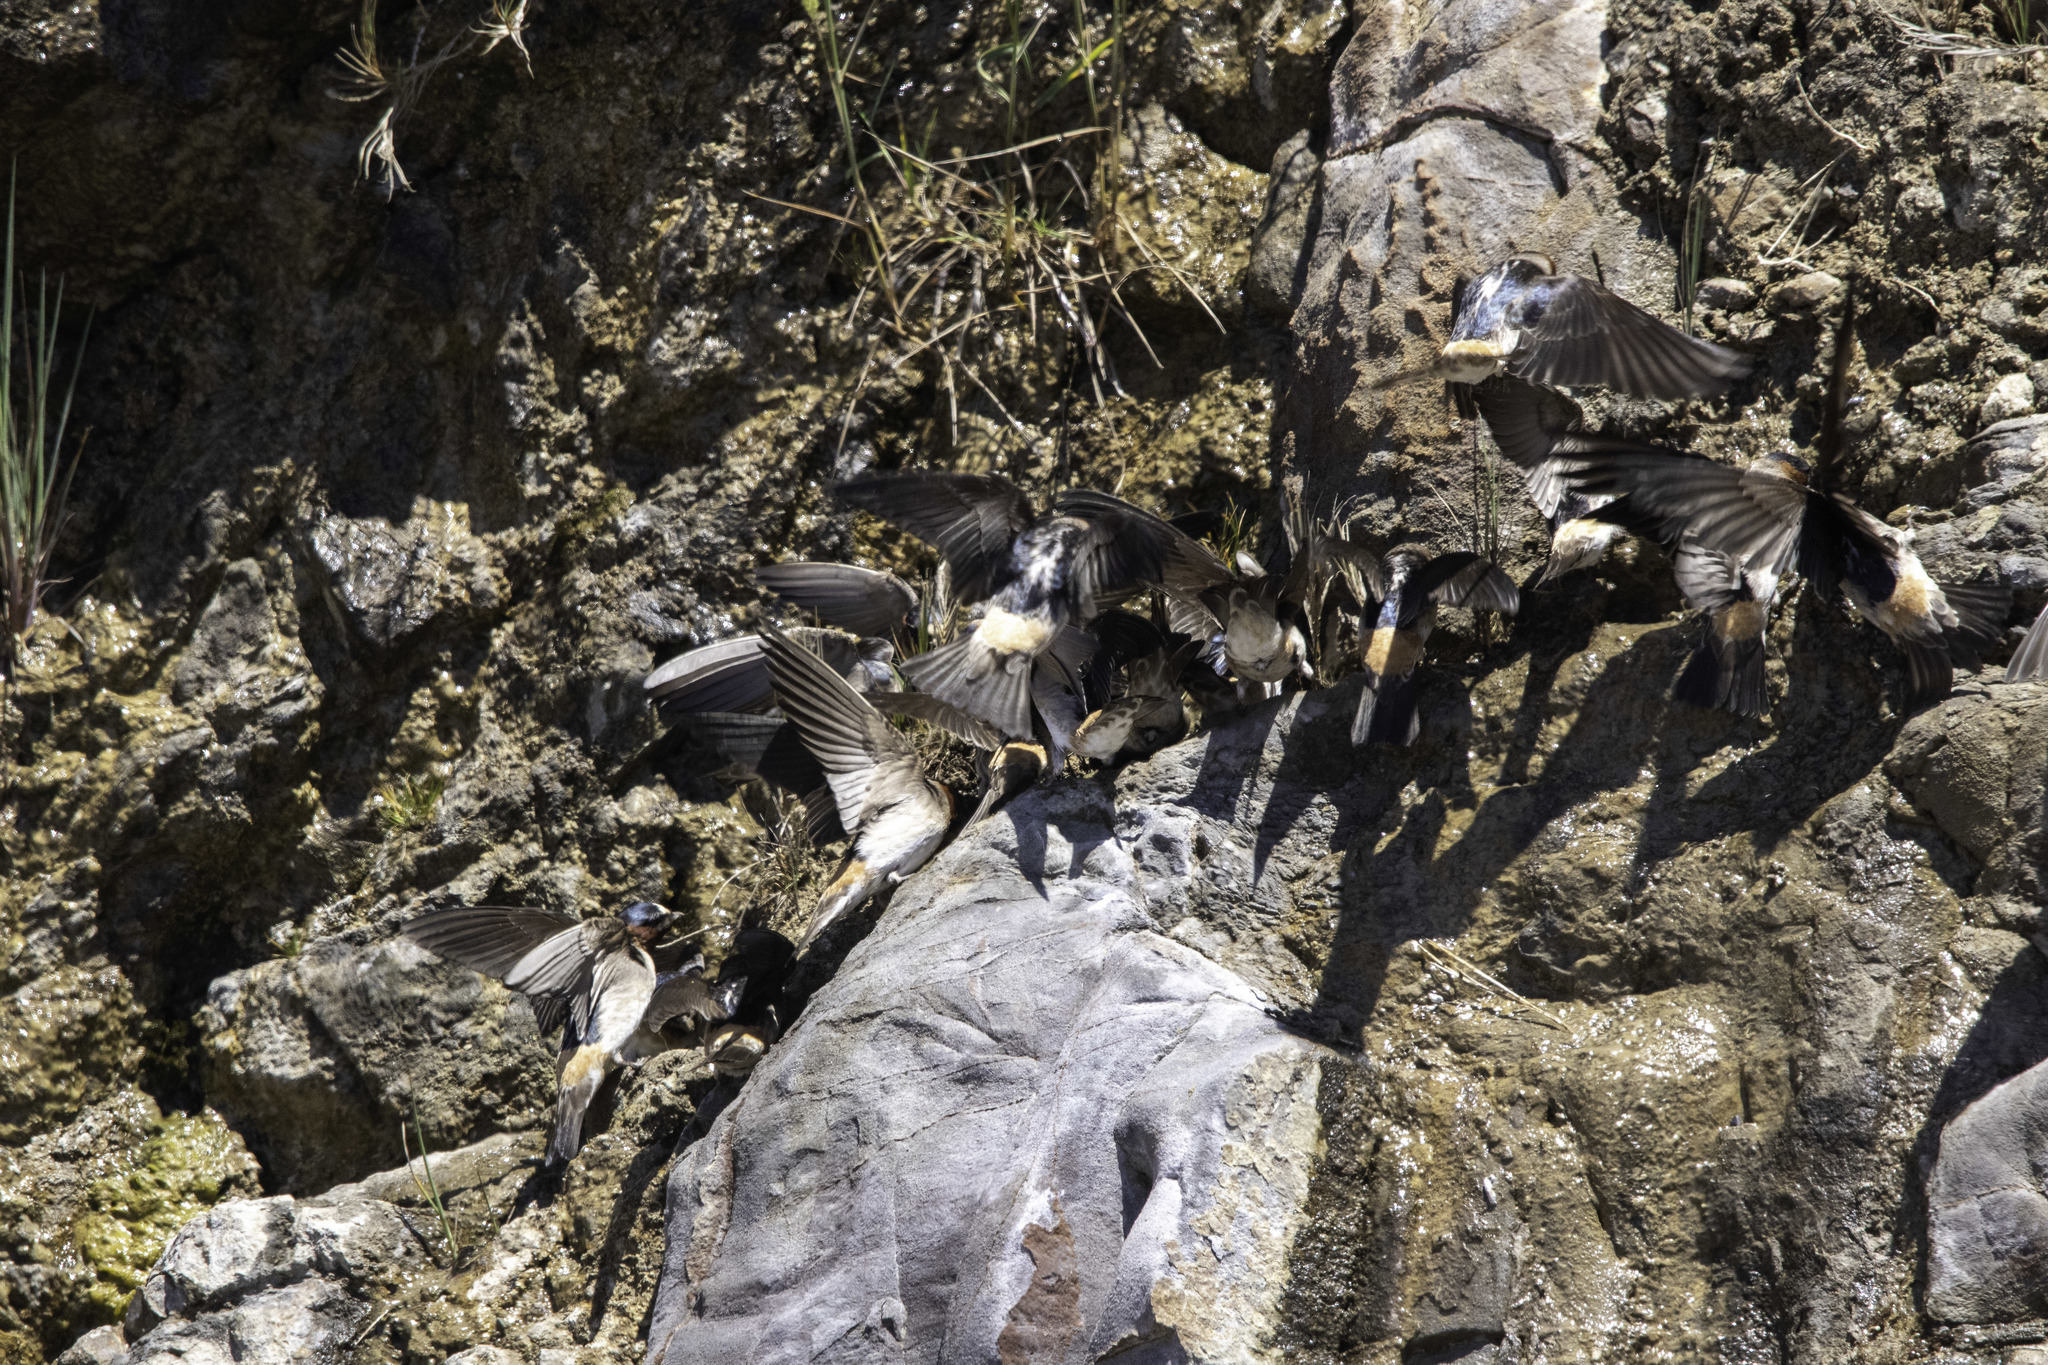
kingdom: Animalia
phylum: Chordata
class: Aves
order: Passeriformes
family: Hirundinidae
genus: Petrochelidon
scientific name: Petrochelidon pyrrhonota
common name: American cliff swallow
